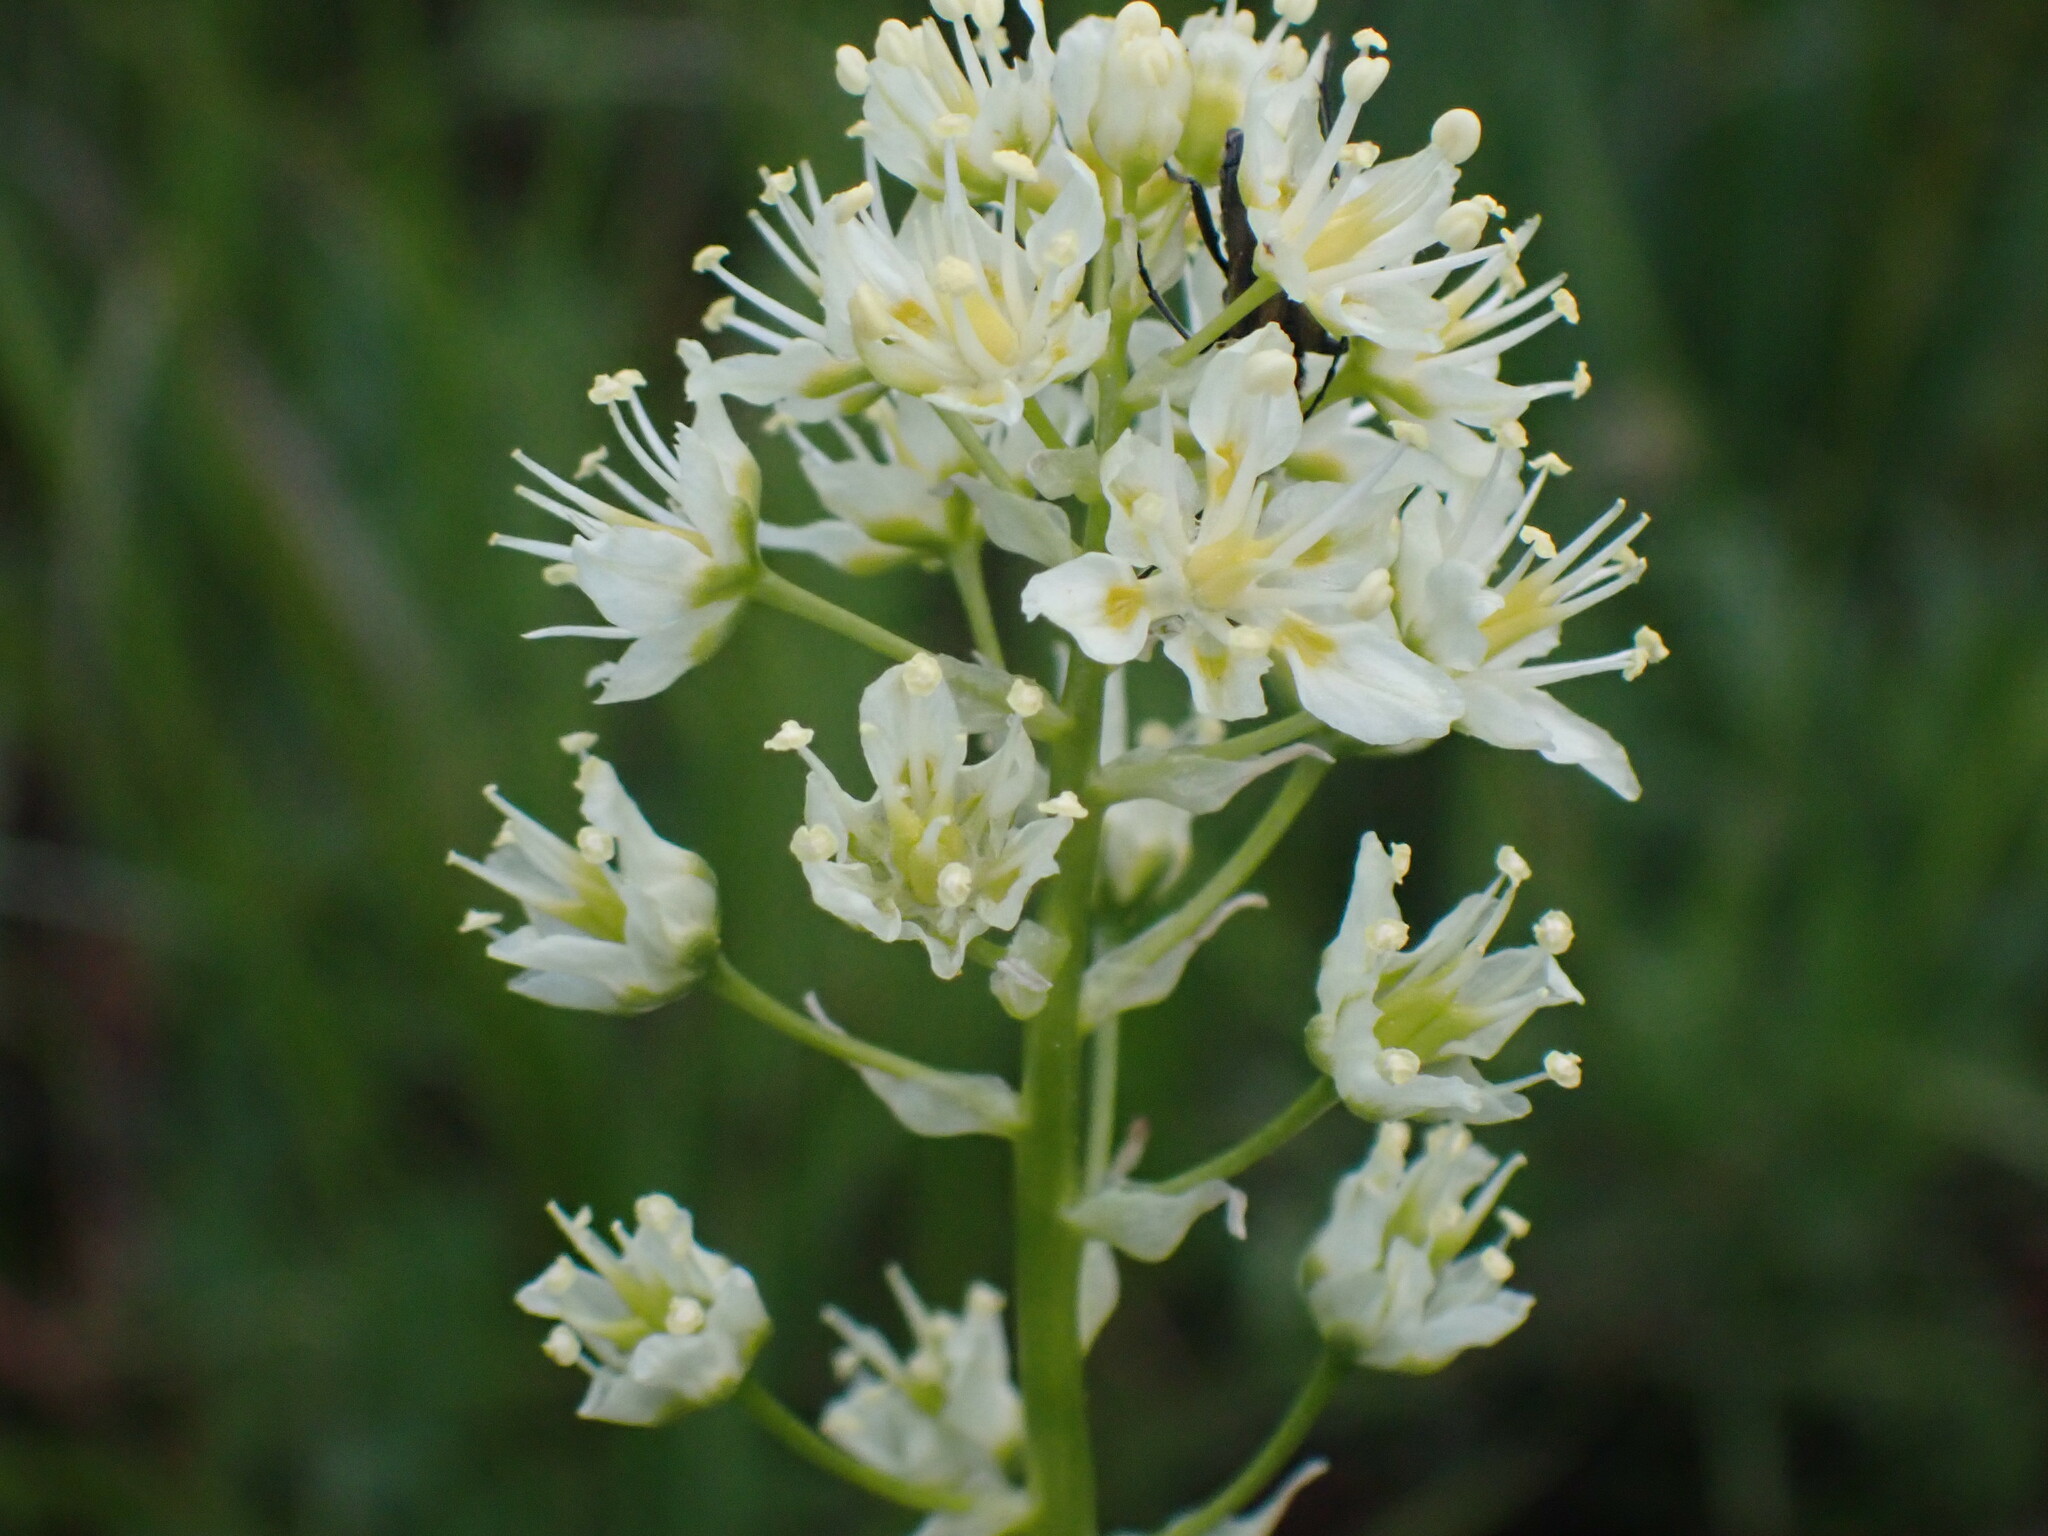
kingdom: Plantae
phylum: Tracheophyta
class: Liliopsida
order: Liliales
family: Melanthiaceae
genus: Toxicoscordion
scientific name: Toxicoscordion venenosum
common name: Meadow death camas
